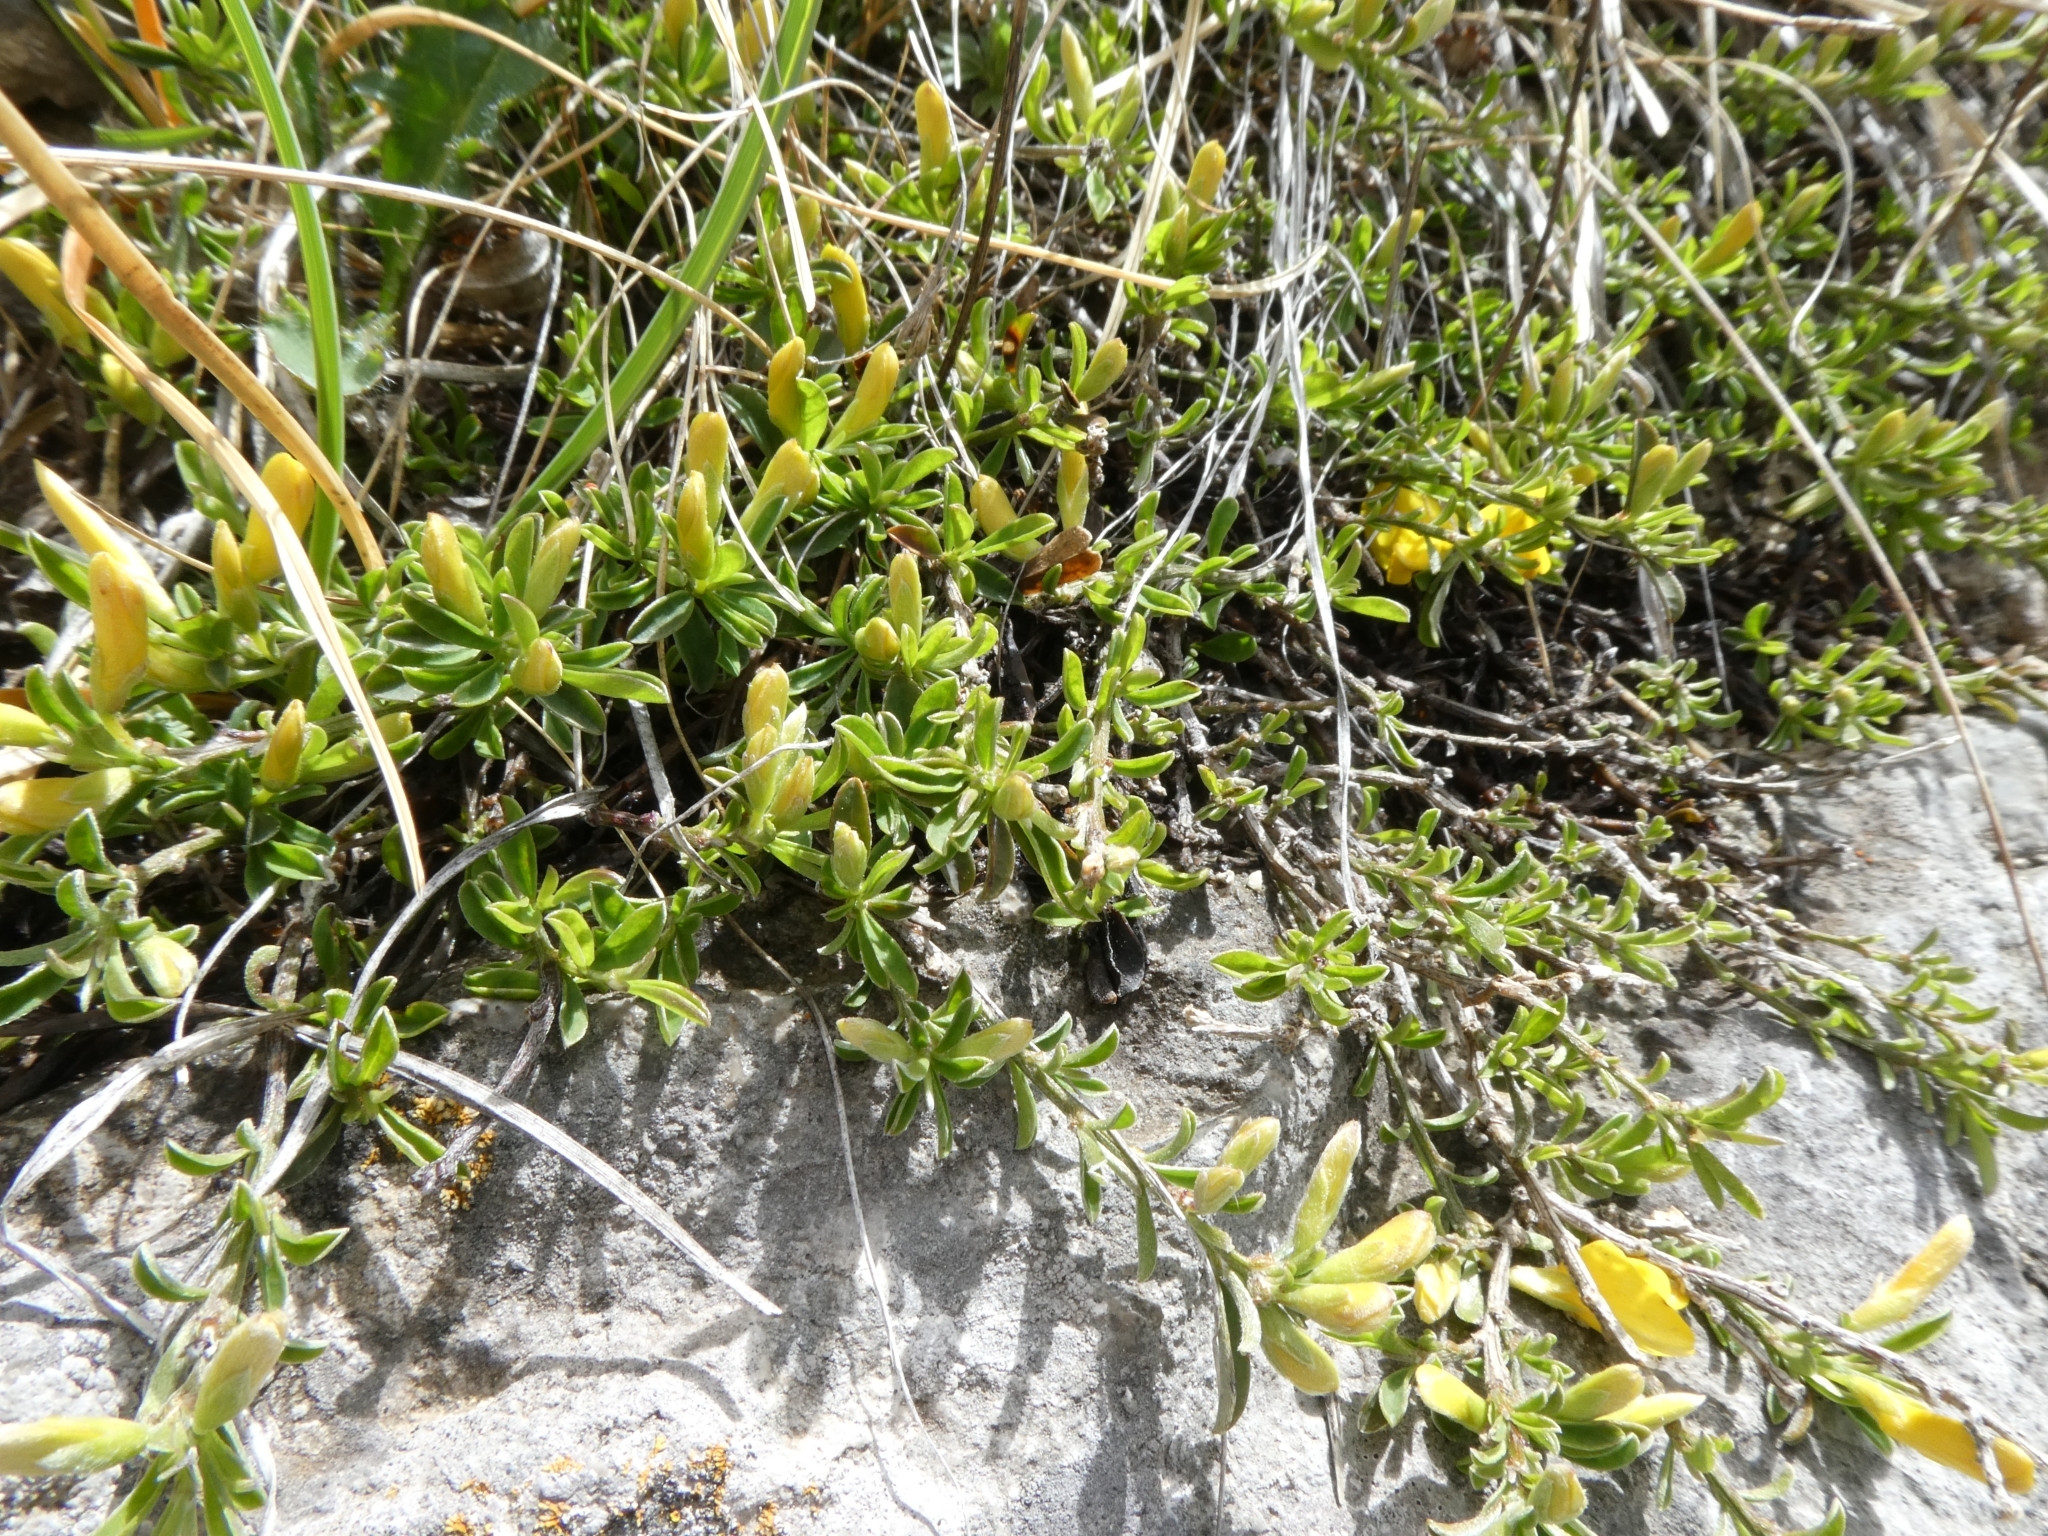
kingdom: Plantae
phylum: Tracheophyta
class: Magnoliopsida
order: Fabales
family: Fabaceae
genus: Genista
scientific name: Genista pilosa
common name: Hairy greenweed
